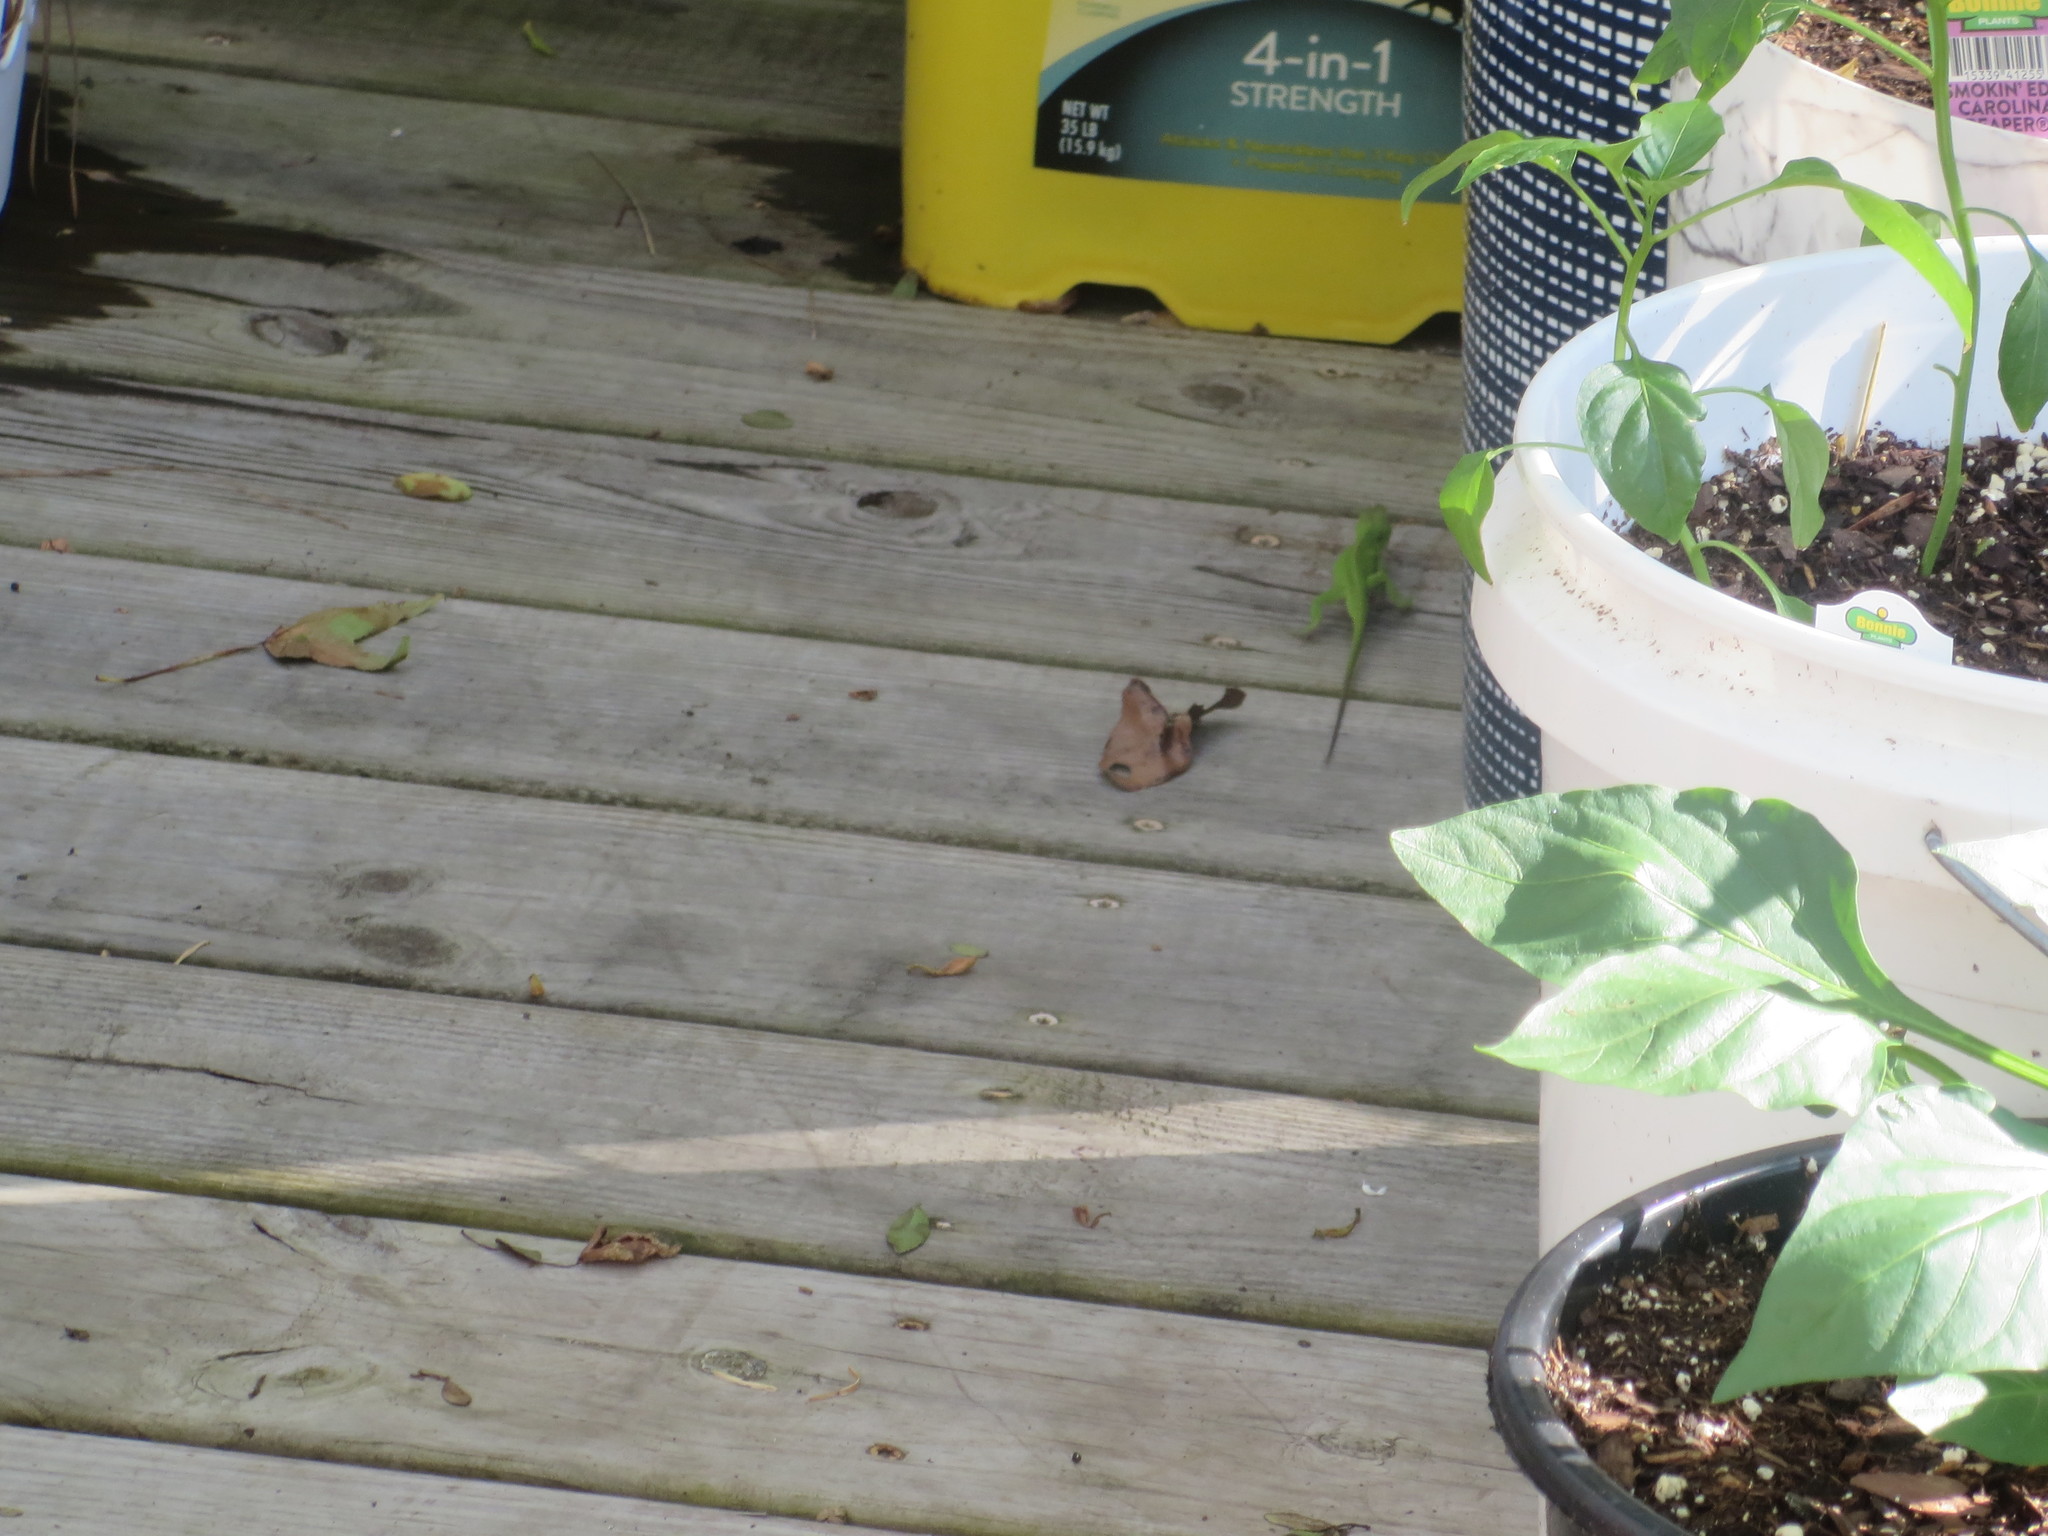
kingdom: Animalia
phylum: Chordata
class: Squamata
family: Dactyloidae
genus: Anolis
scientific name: Anolis carolinensis
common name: Green anole
